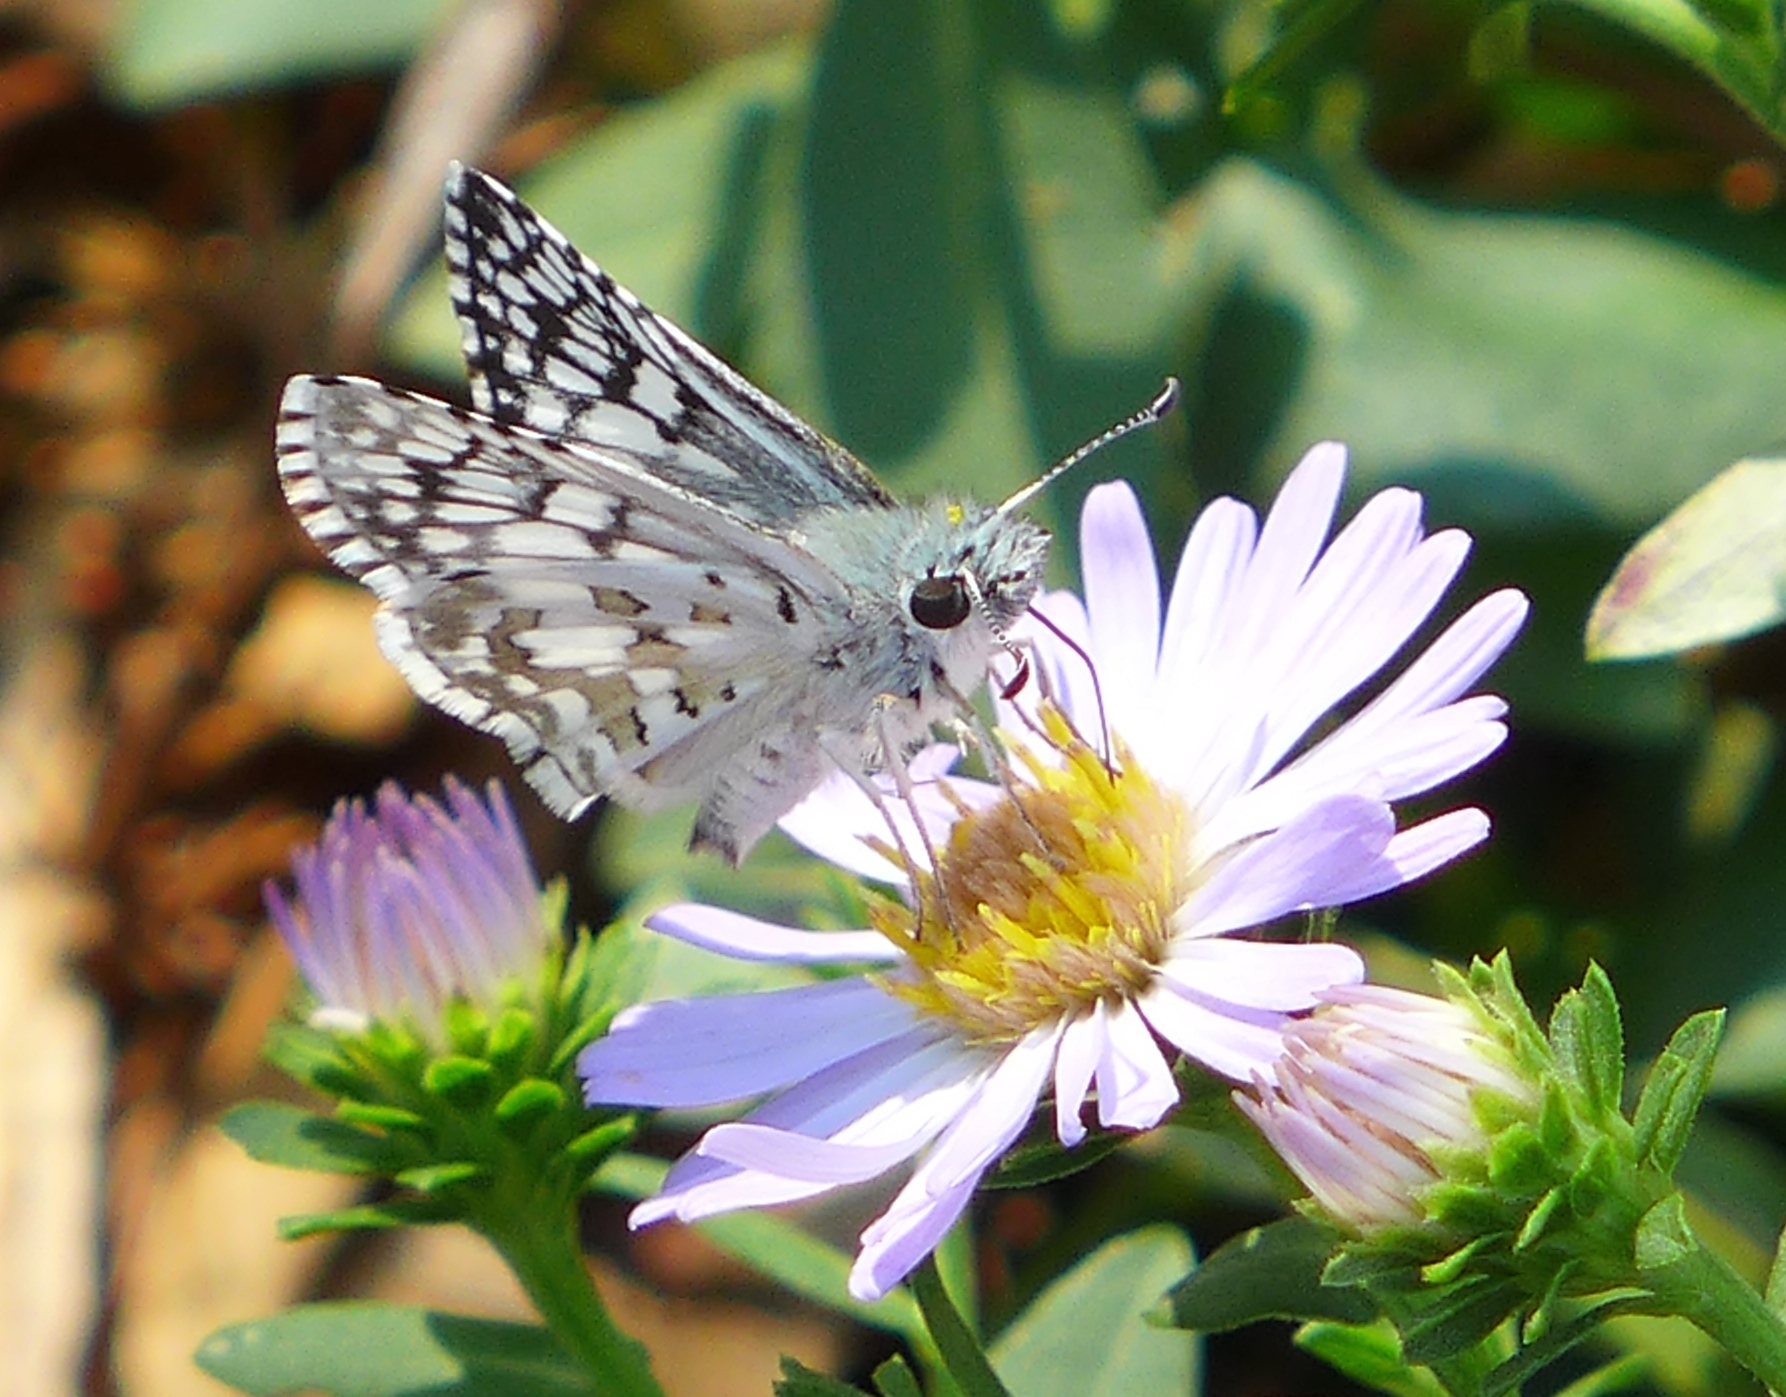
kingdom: Animalia
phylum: Arthropoda
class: Insecta
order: Lepidoptera
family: Hesperiidae
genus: Burnsius
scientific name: Burnsius communis
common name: Common checkered-skipper
